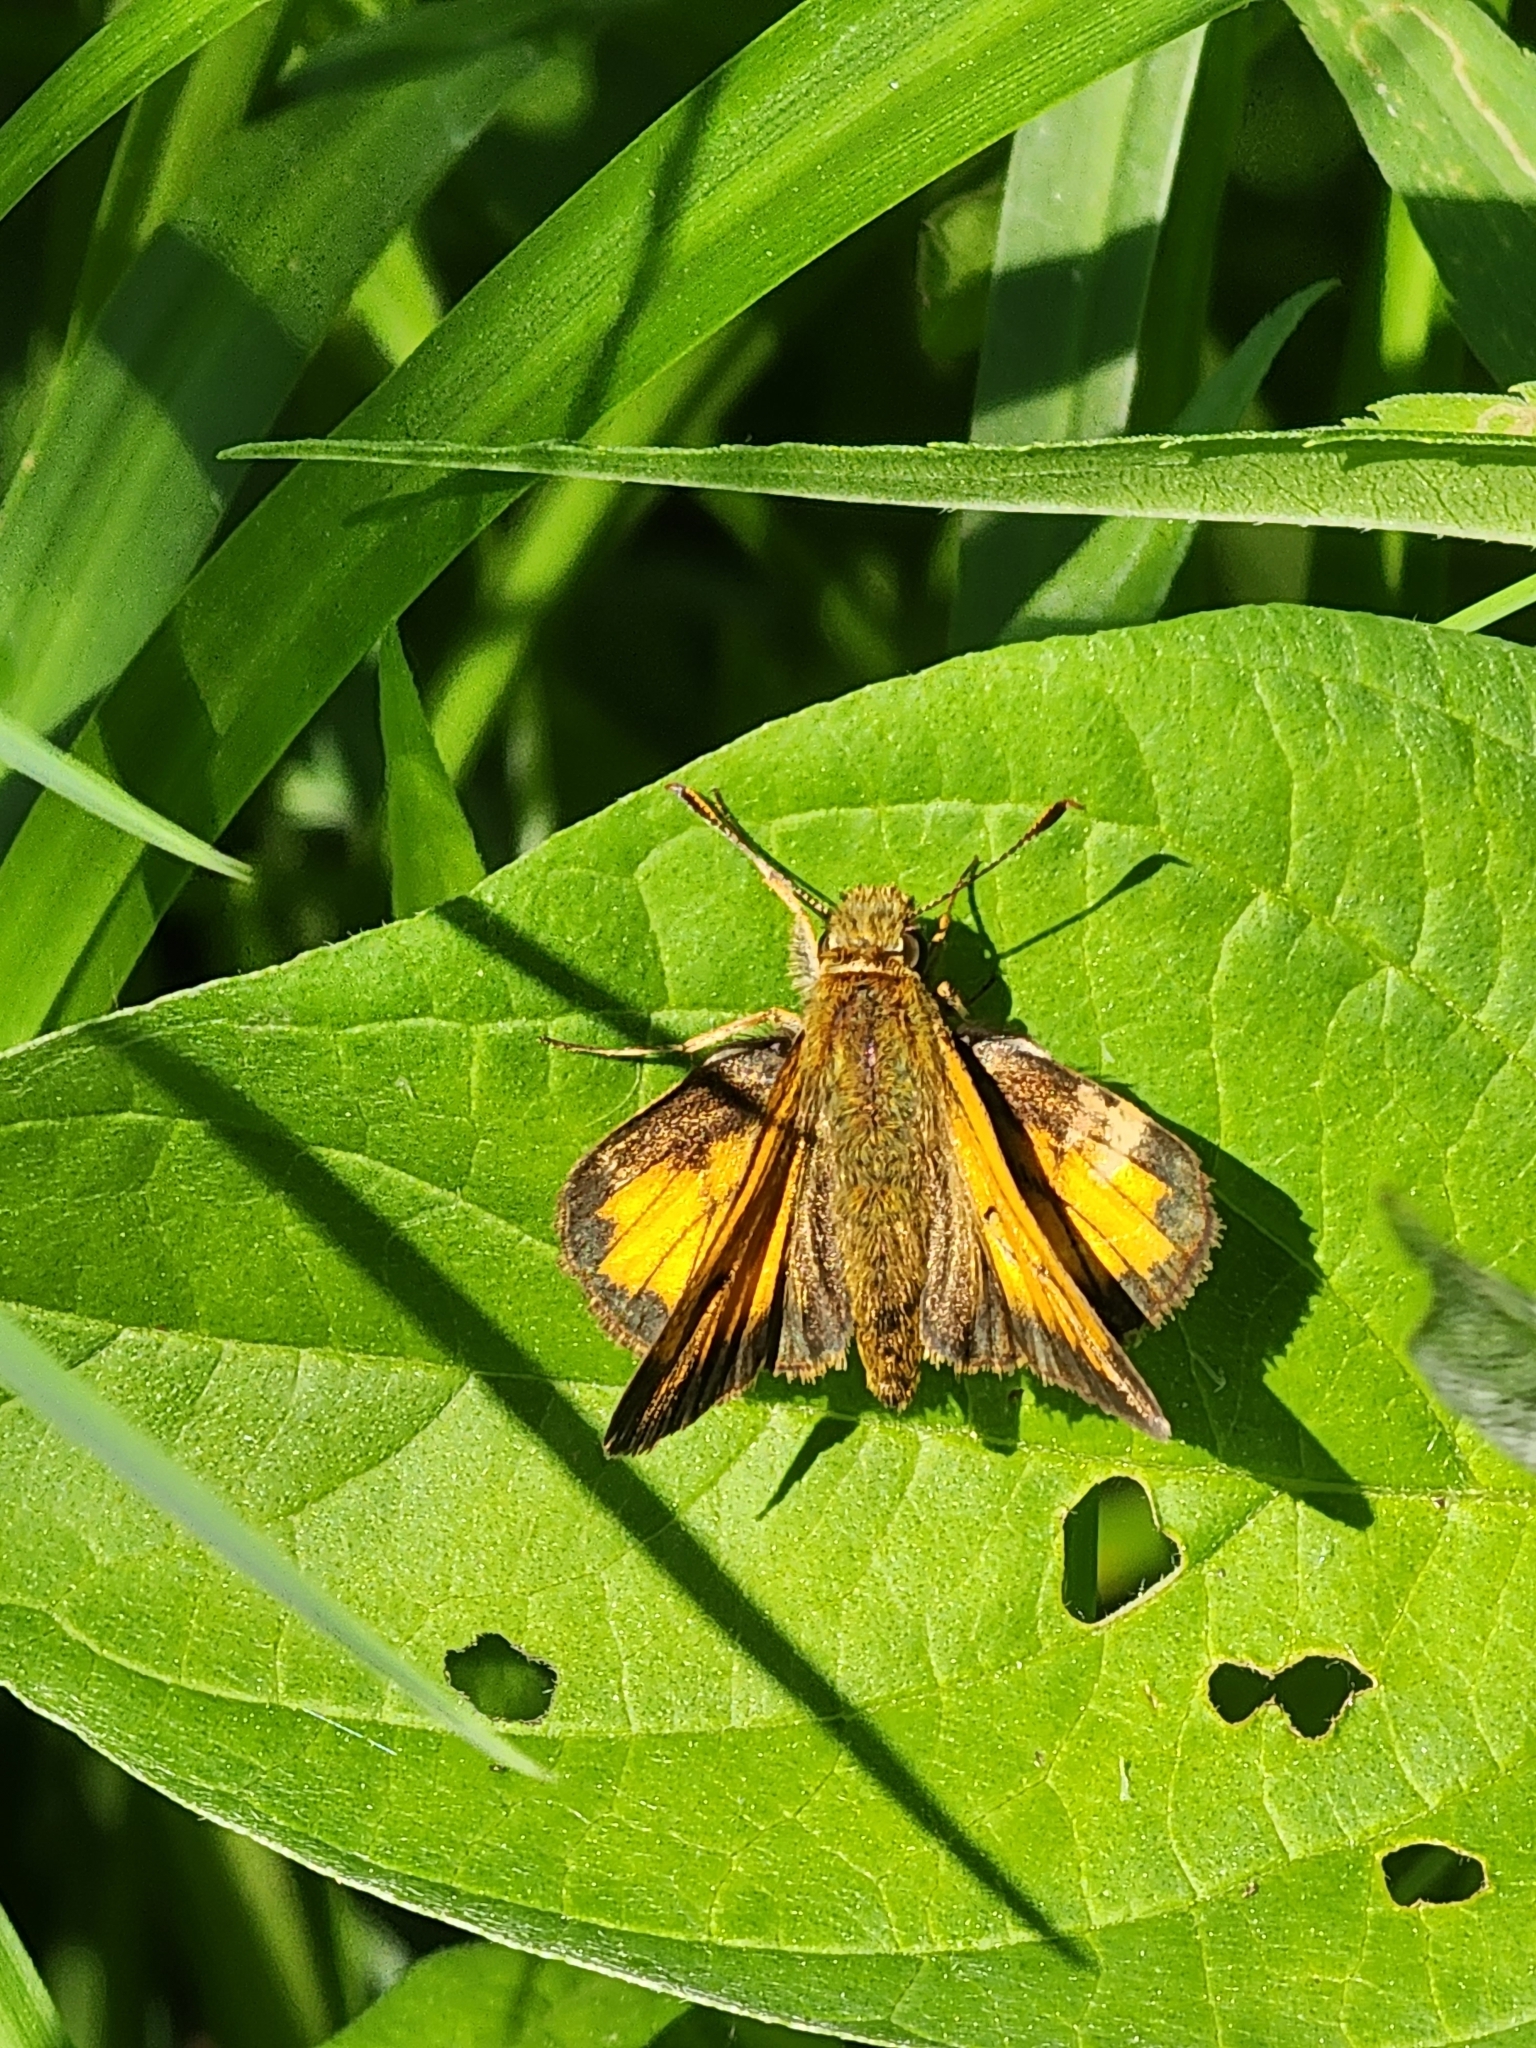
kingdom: Animalia
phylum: Arthropoda
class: Insecta
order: Lepidoptera
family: Hesperiidae
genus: Lon
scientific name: Lon hobomok
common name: Hobomok skipper
